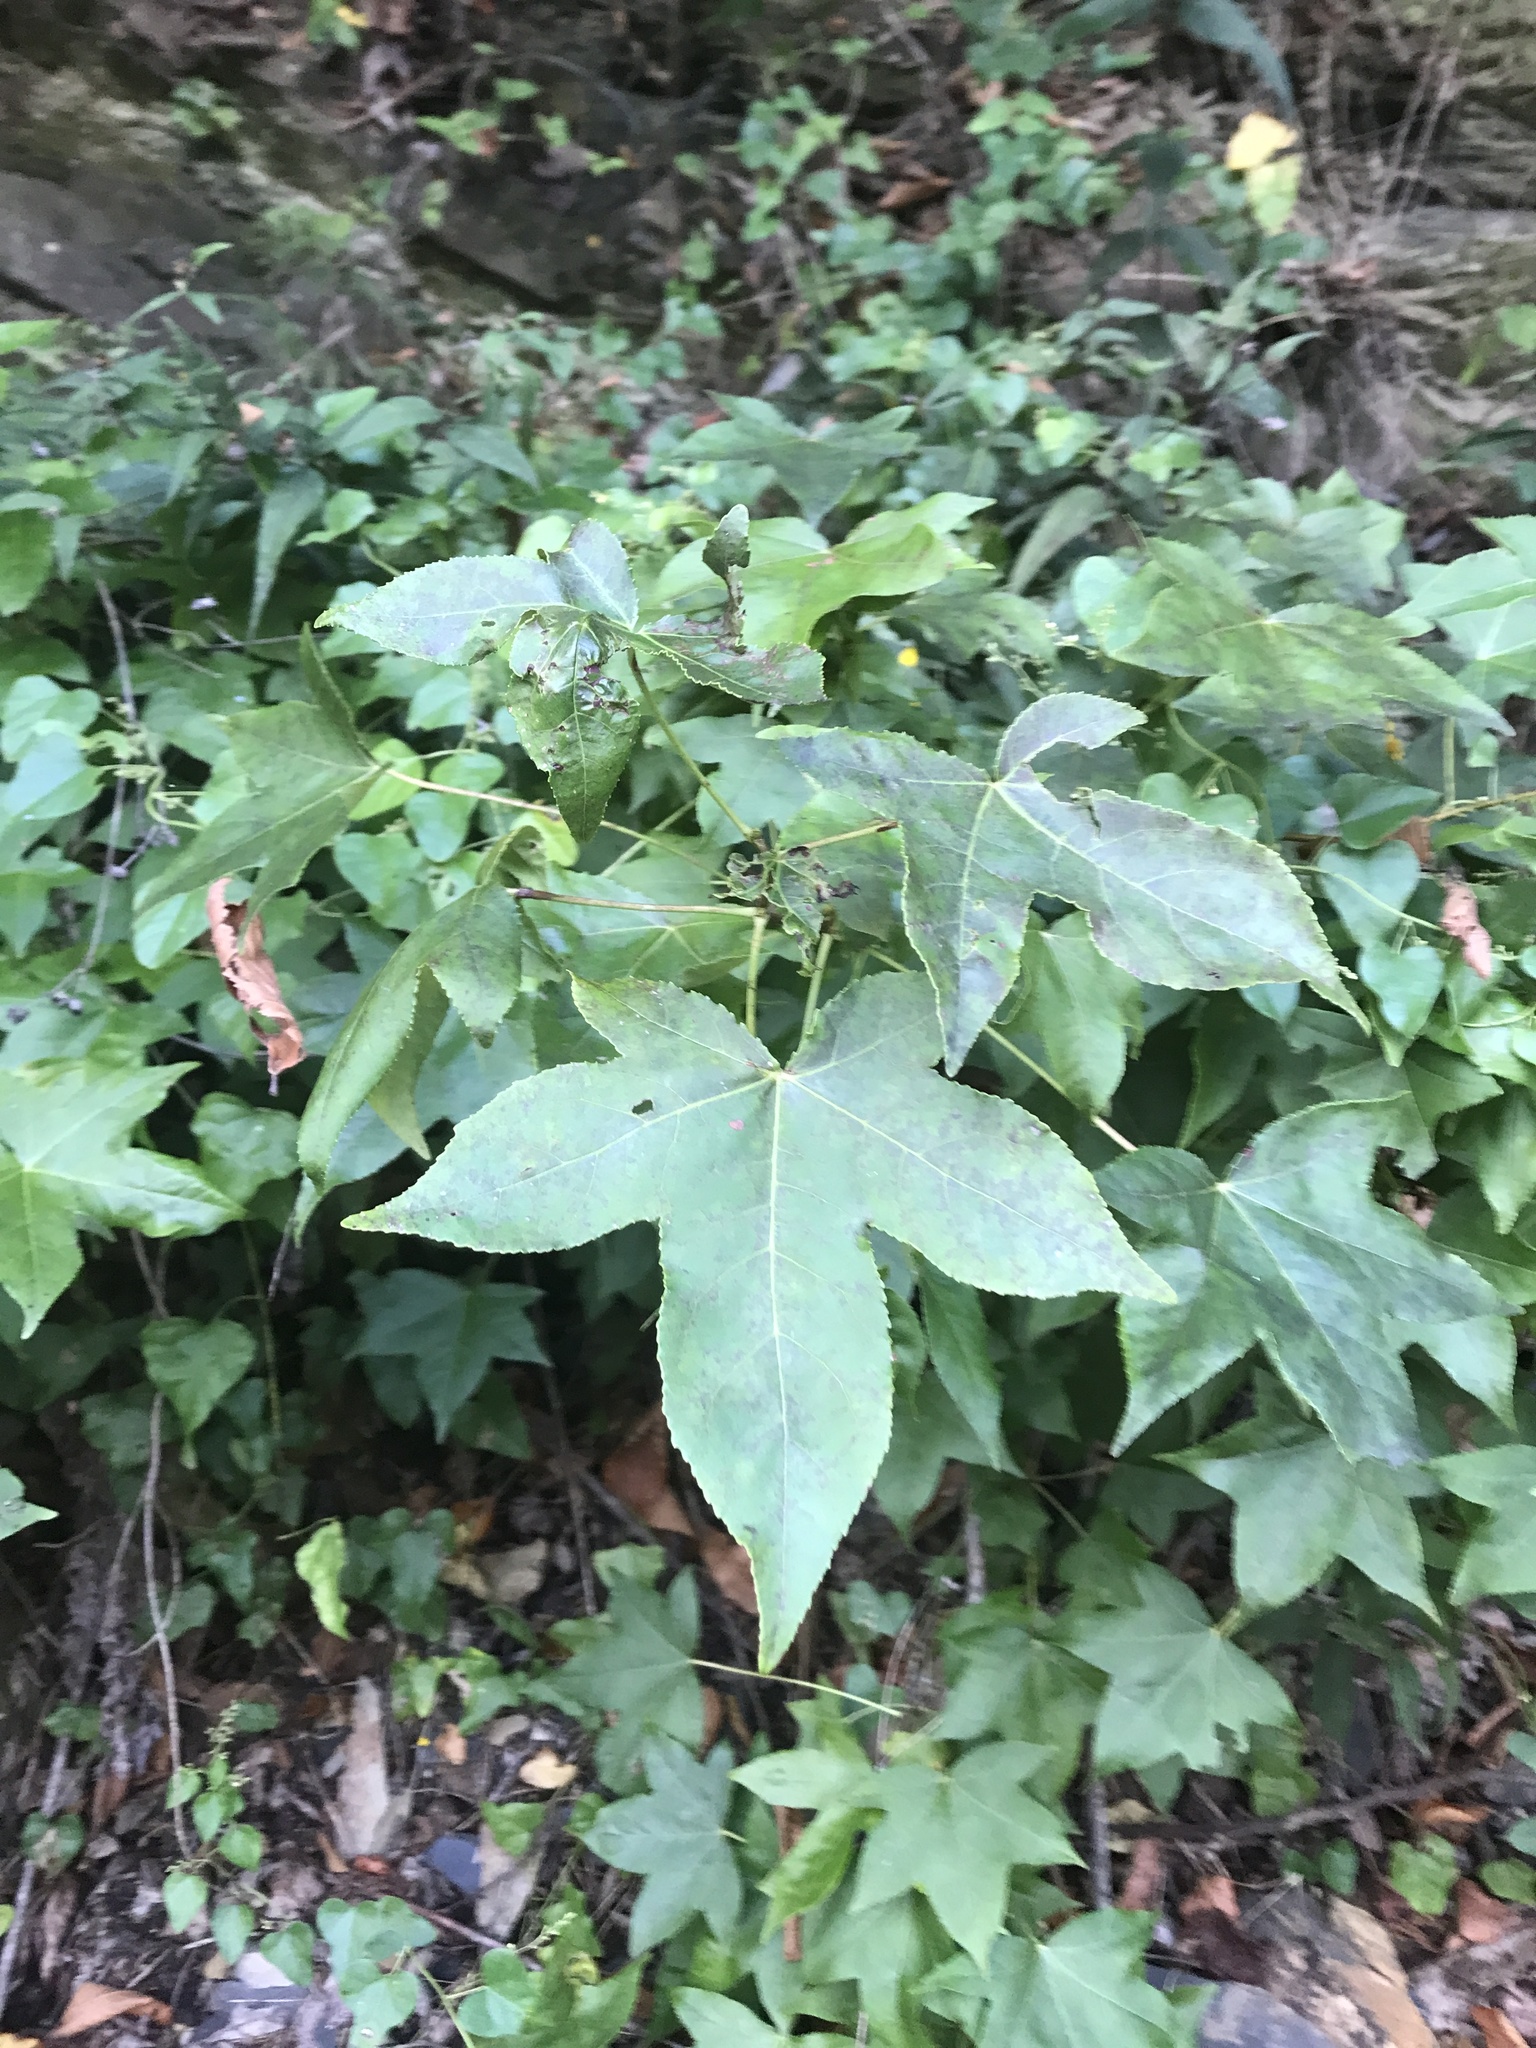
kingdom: Plantae
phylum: Tracheophyta
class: Magnoliopsida
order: Saxifragales
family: Altingiaceae
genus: Liquidambar
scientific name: Liquidambar styraciflua
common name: Sweet gum
